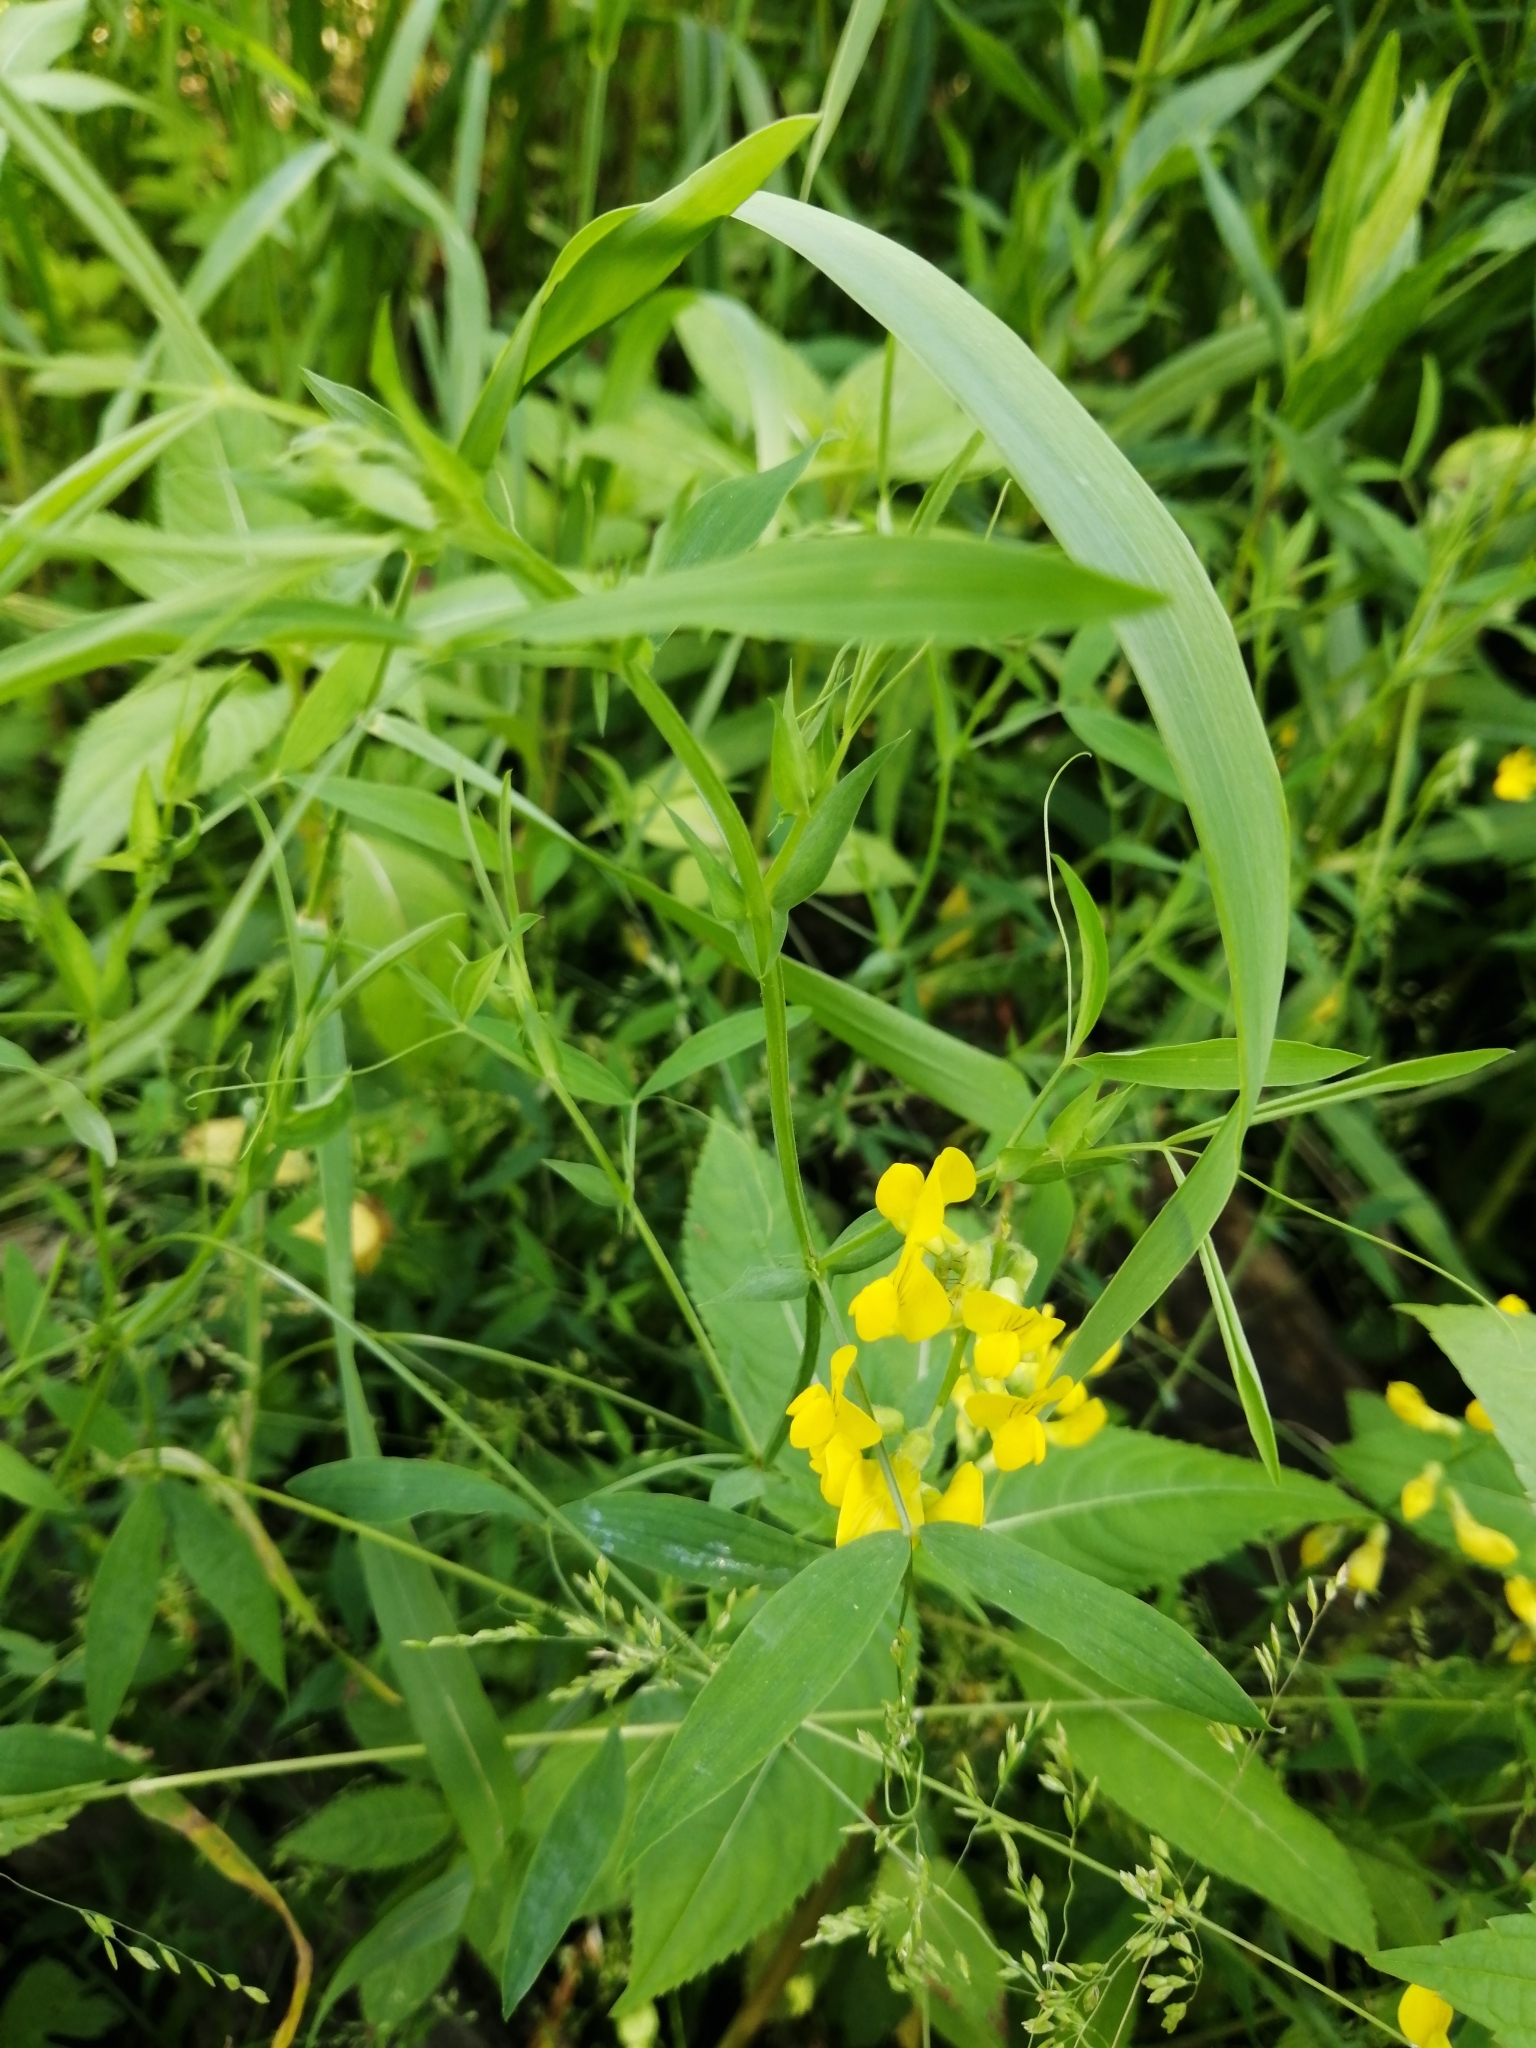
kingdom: Plantae
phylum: Tracheophyta
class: Magnoliopsida
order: Fabales
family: Fabaceae
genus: Lathyrus
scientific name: Lathyrus pratensis
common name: Meadow vetchling
